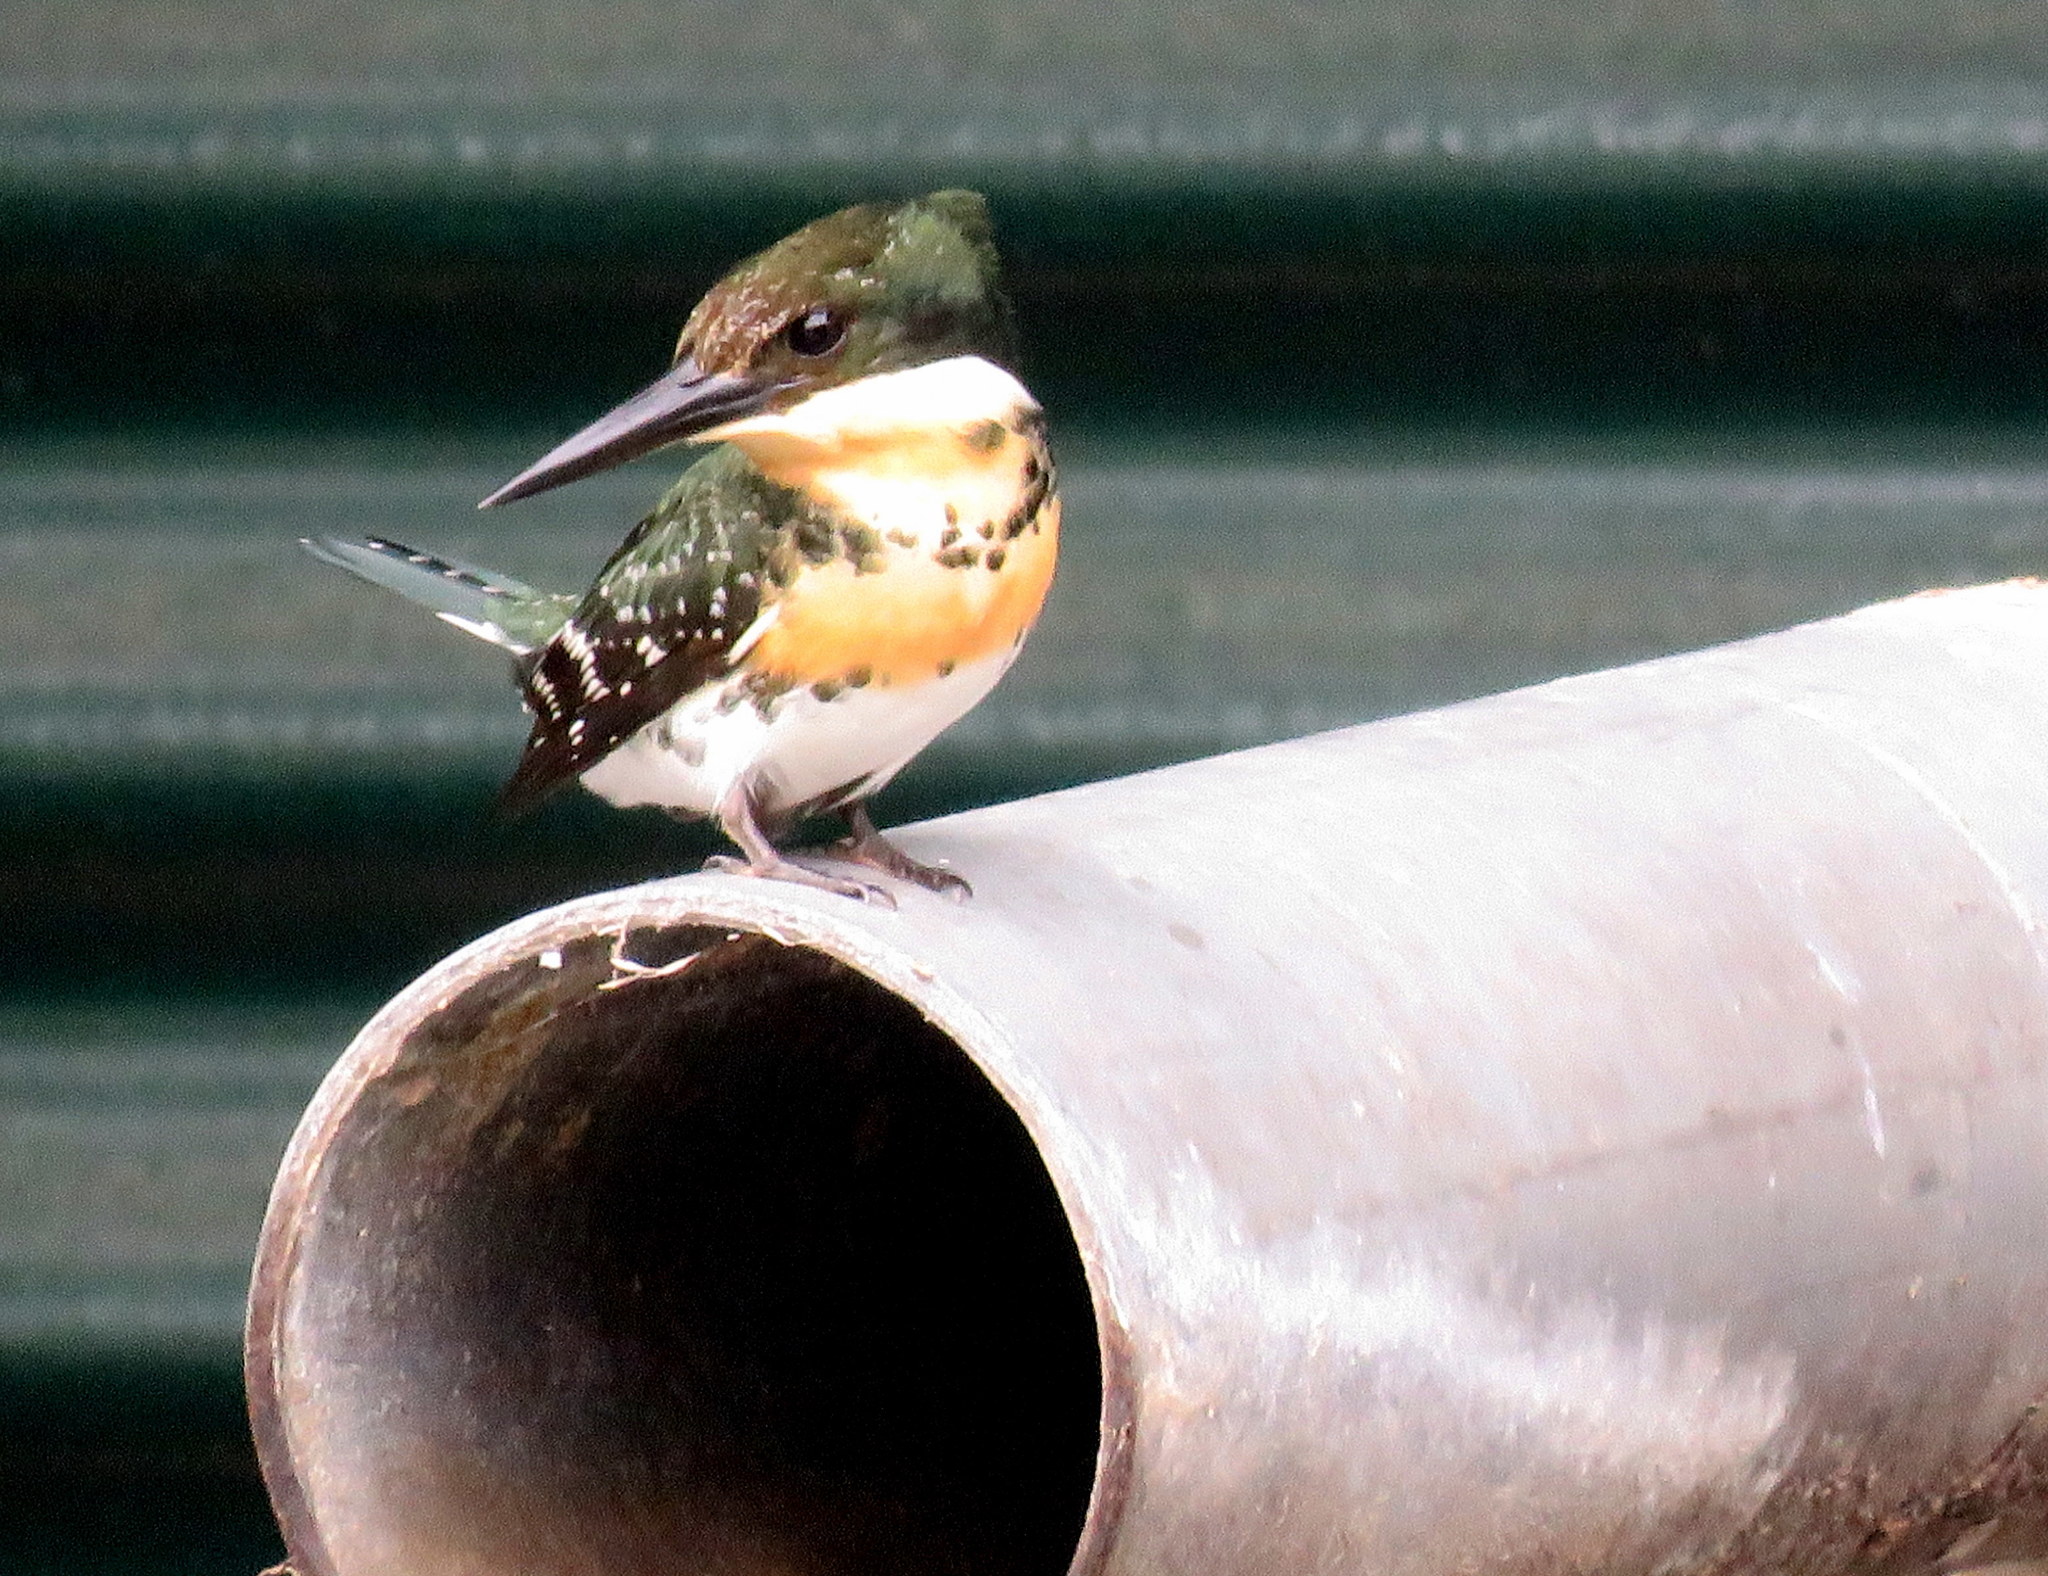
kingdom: Animalia
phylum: Chordata
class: Aves
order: Coraciiformes
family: Alcedinidae
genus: Chloroceryle
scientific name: Chloroceryle americana
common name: Green kingfisher
